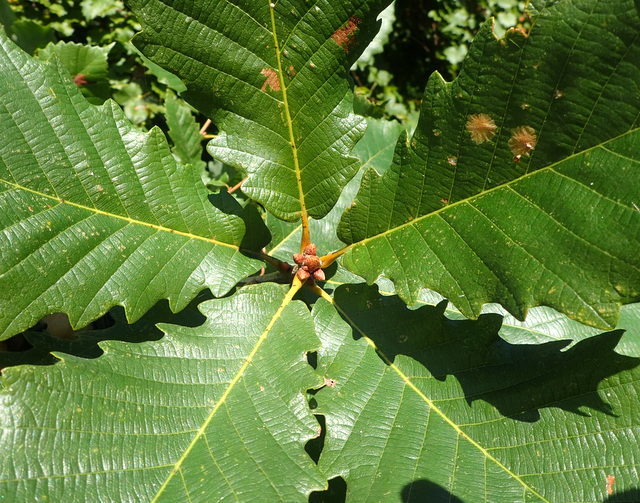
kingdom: Plantae
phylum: Tracheophyta
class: Magnoliopsida
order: Fagales
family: Fagaceae
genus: Quercus
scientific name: Quercus michauxii
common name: Swamp chestnut oak
